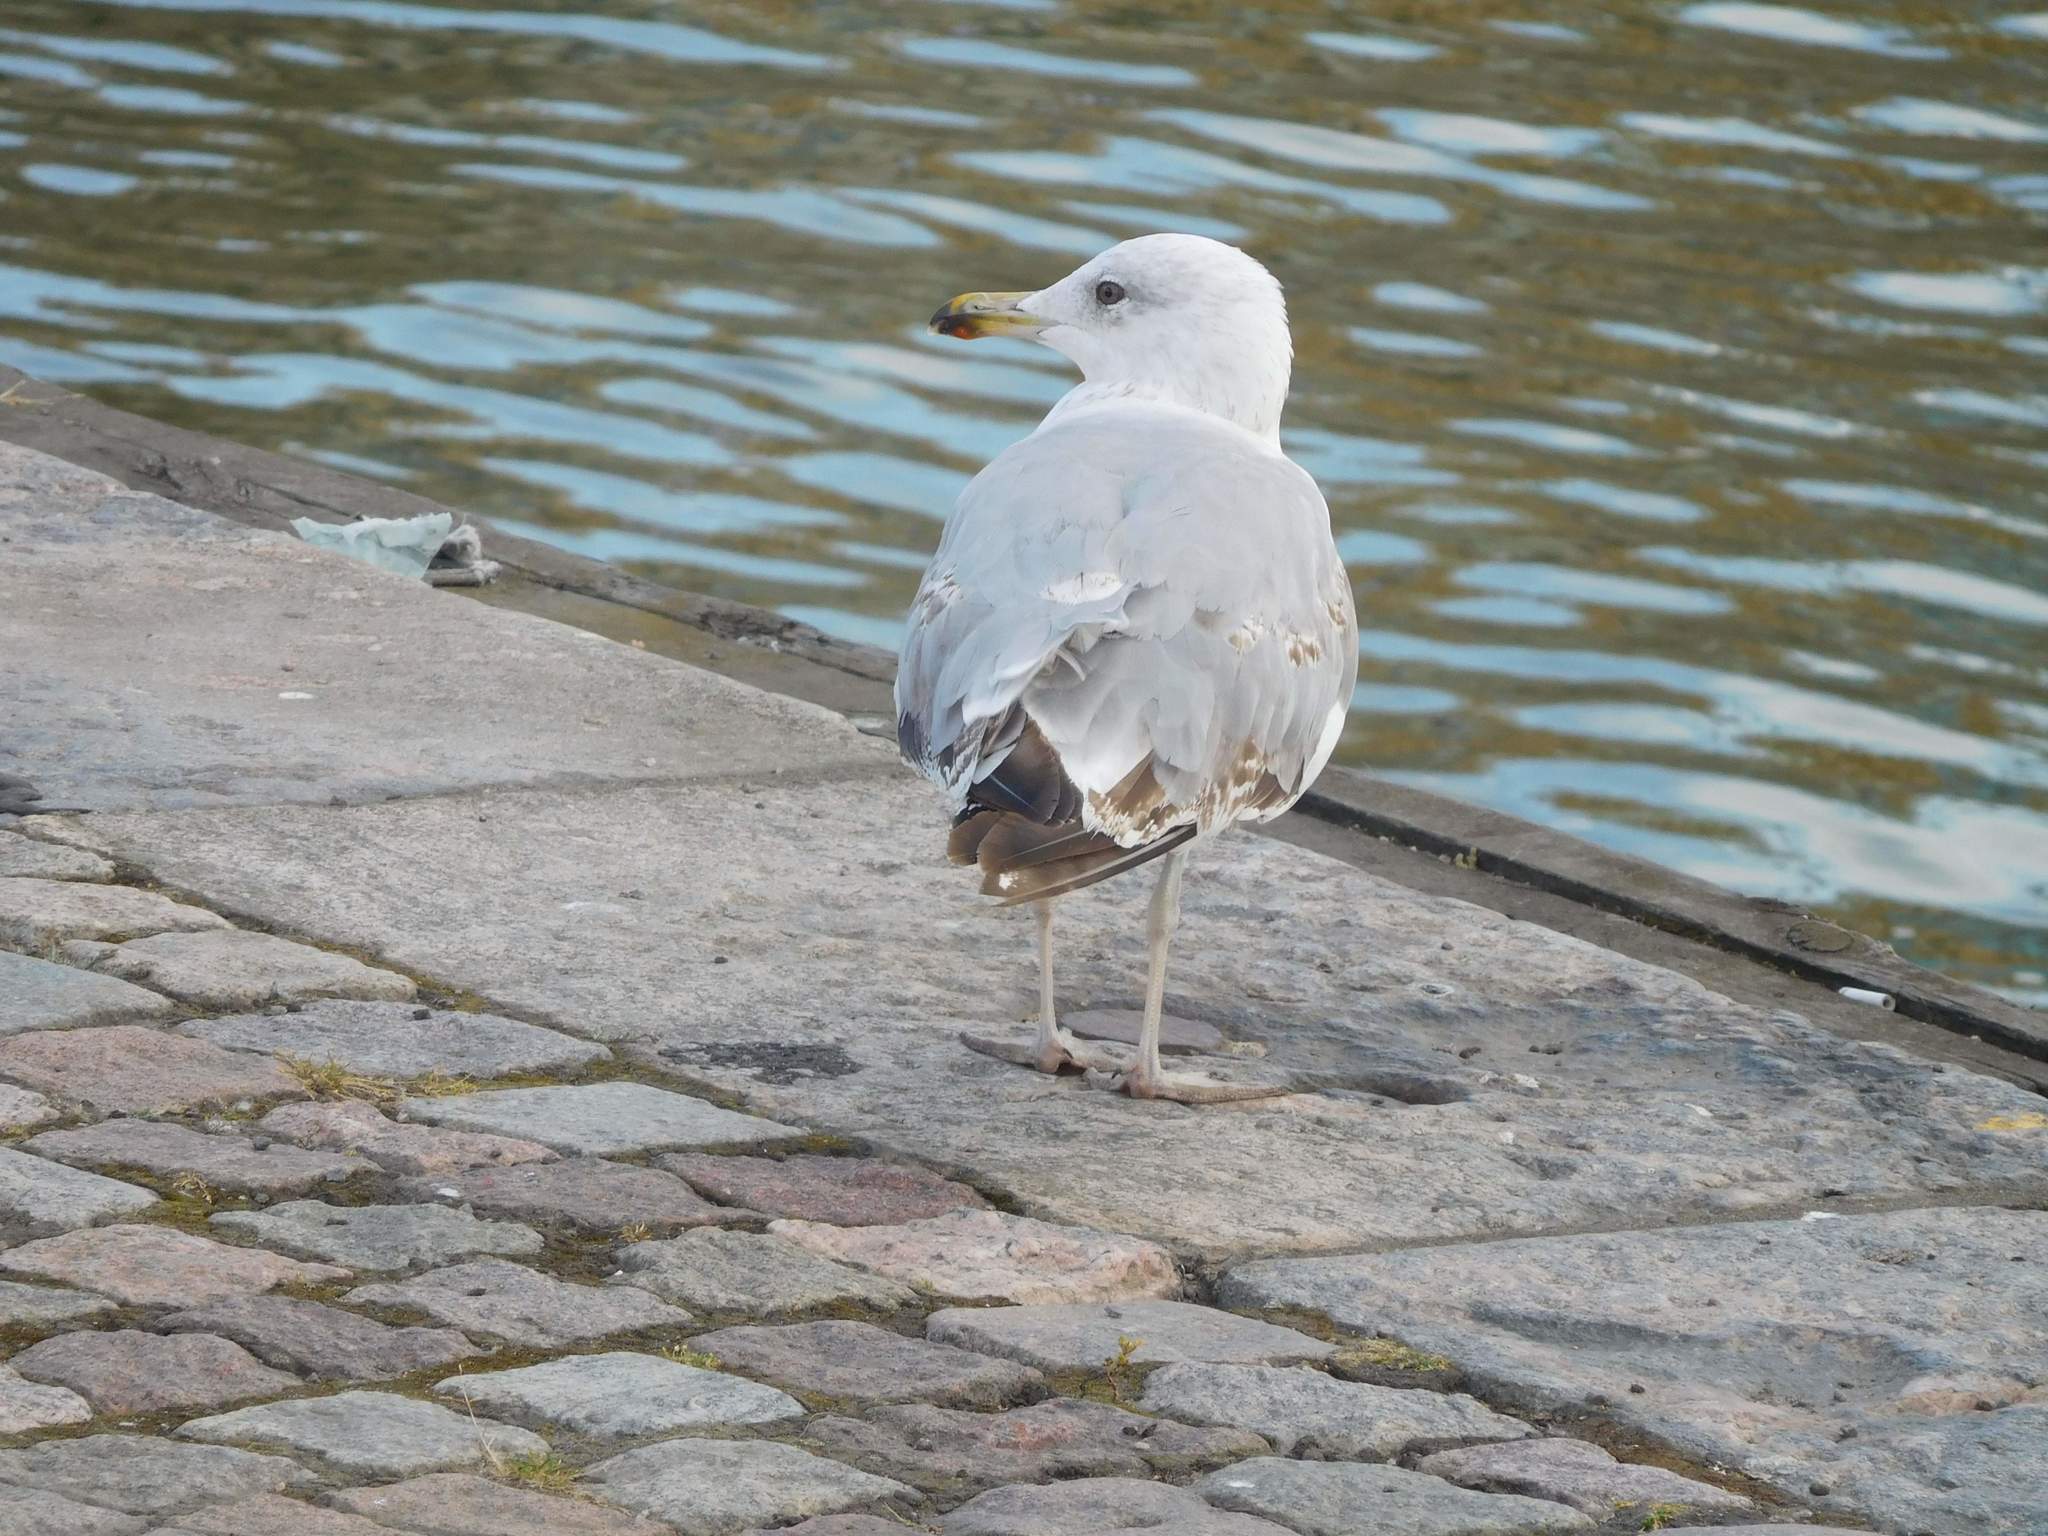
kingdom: Animalia
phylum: Chordata
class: Aves
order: Charadriiformes
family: Laridae
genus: Larus
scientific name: Larus argentatus
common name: Herring gull
